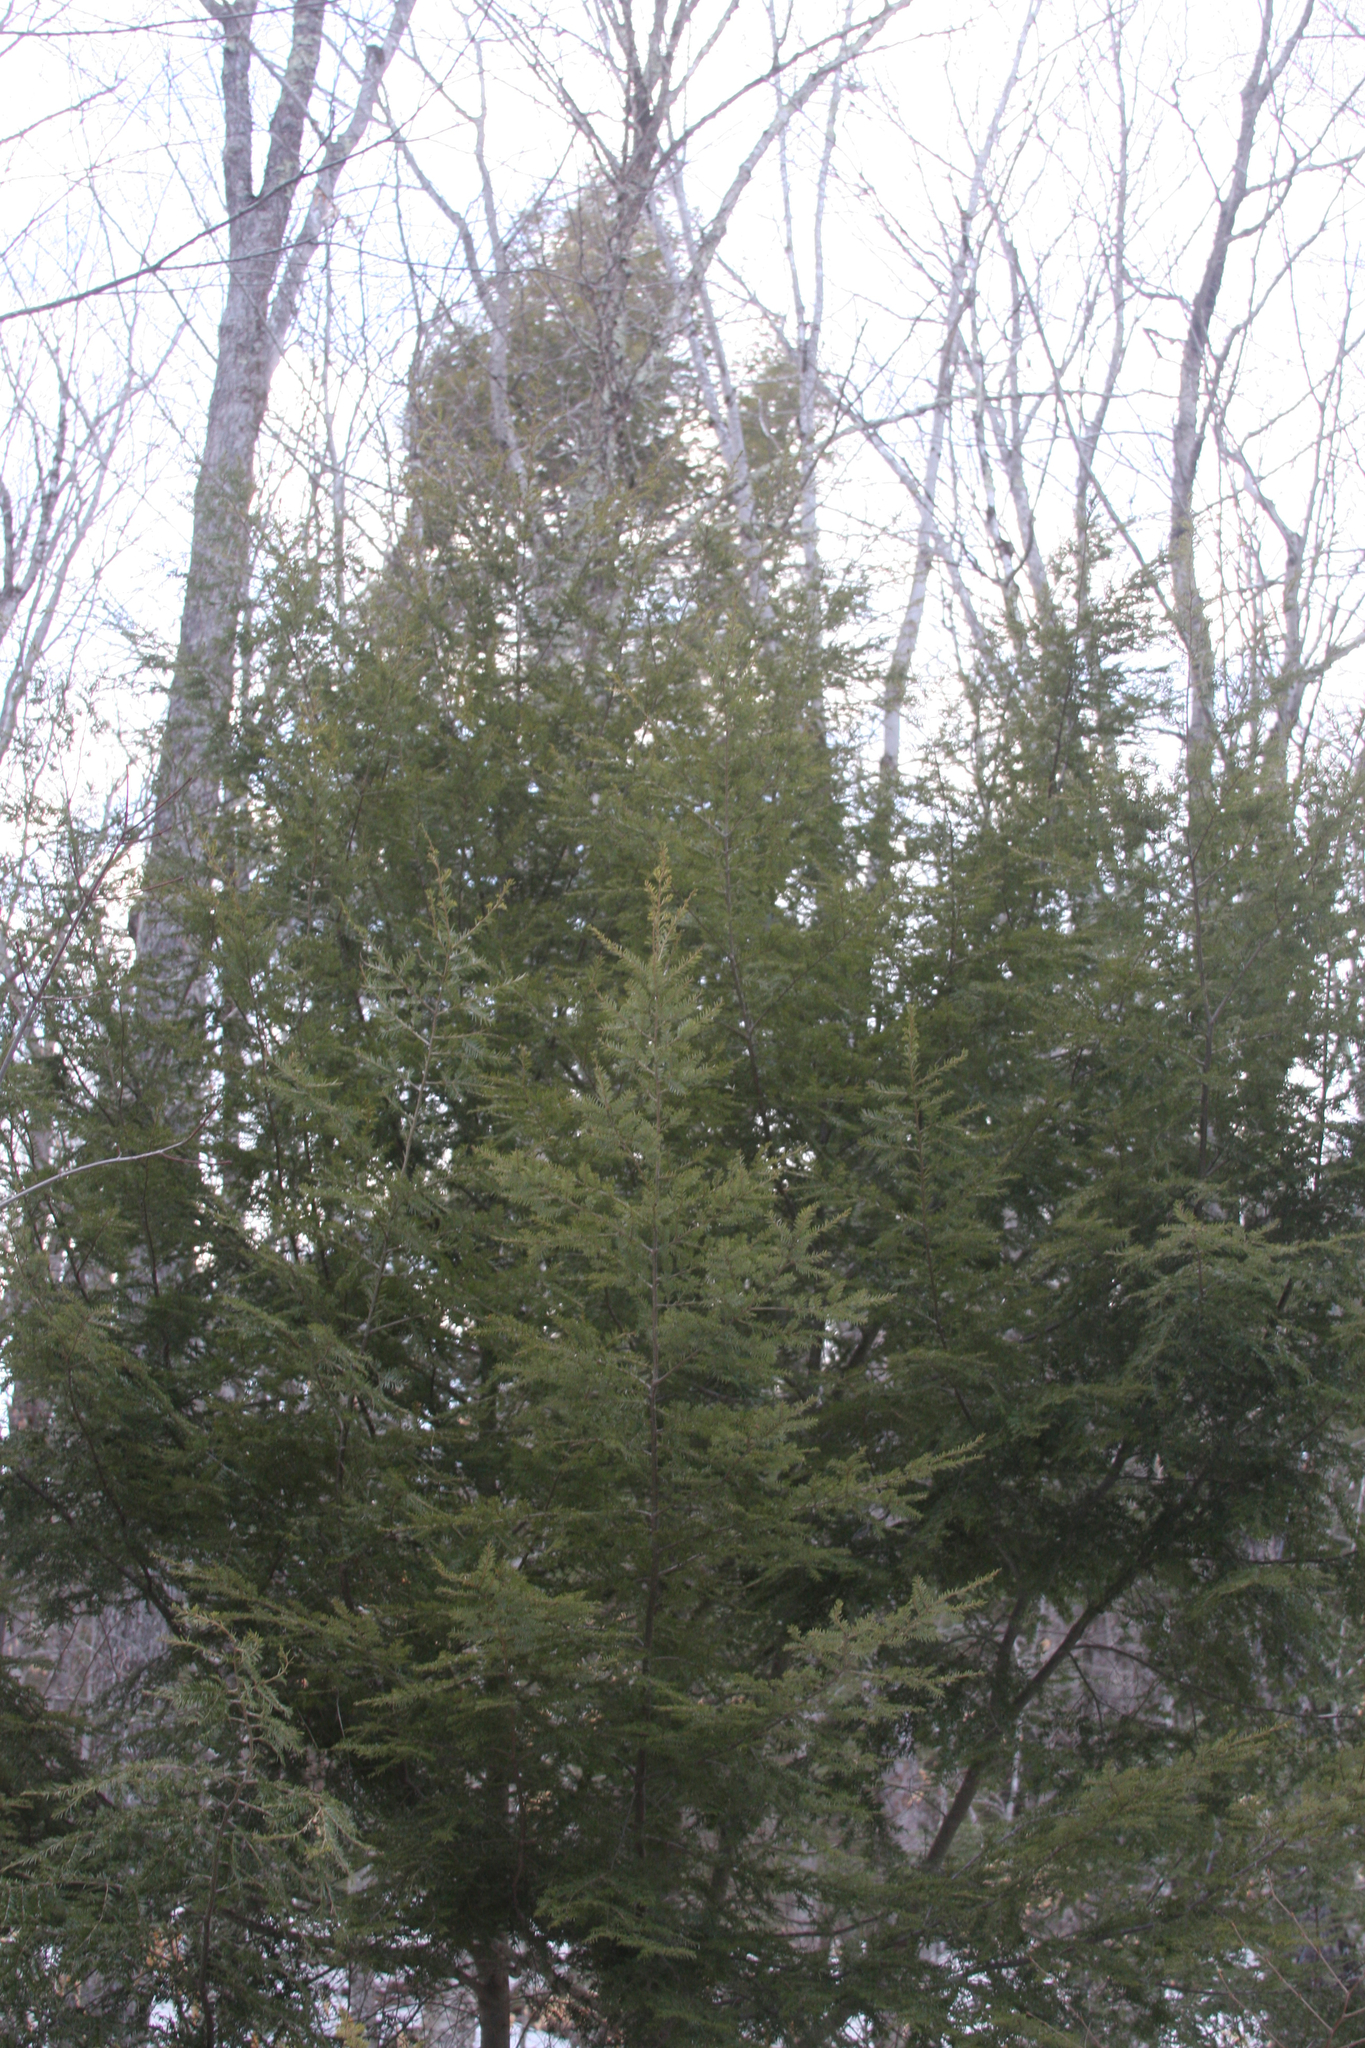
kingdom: Plantae
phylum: Tracheophyta
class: Pinopsida
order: Pinales
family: Pinaceae
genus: Tsuga
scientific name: Tsuga canadensis
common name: Eastern hemlock
